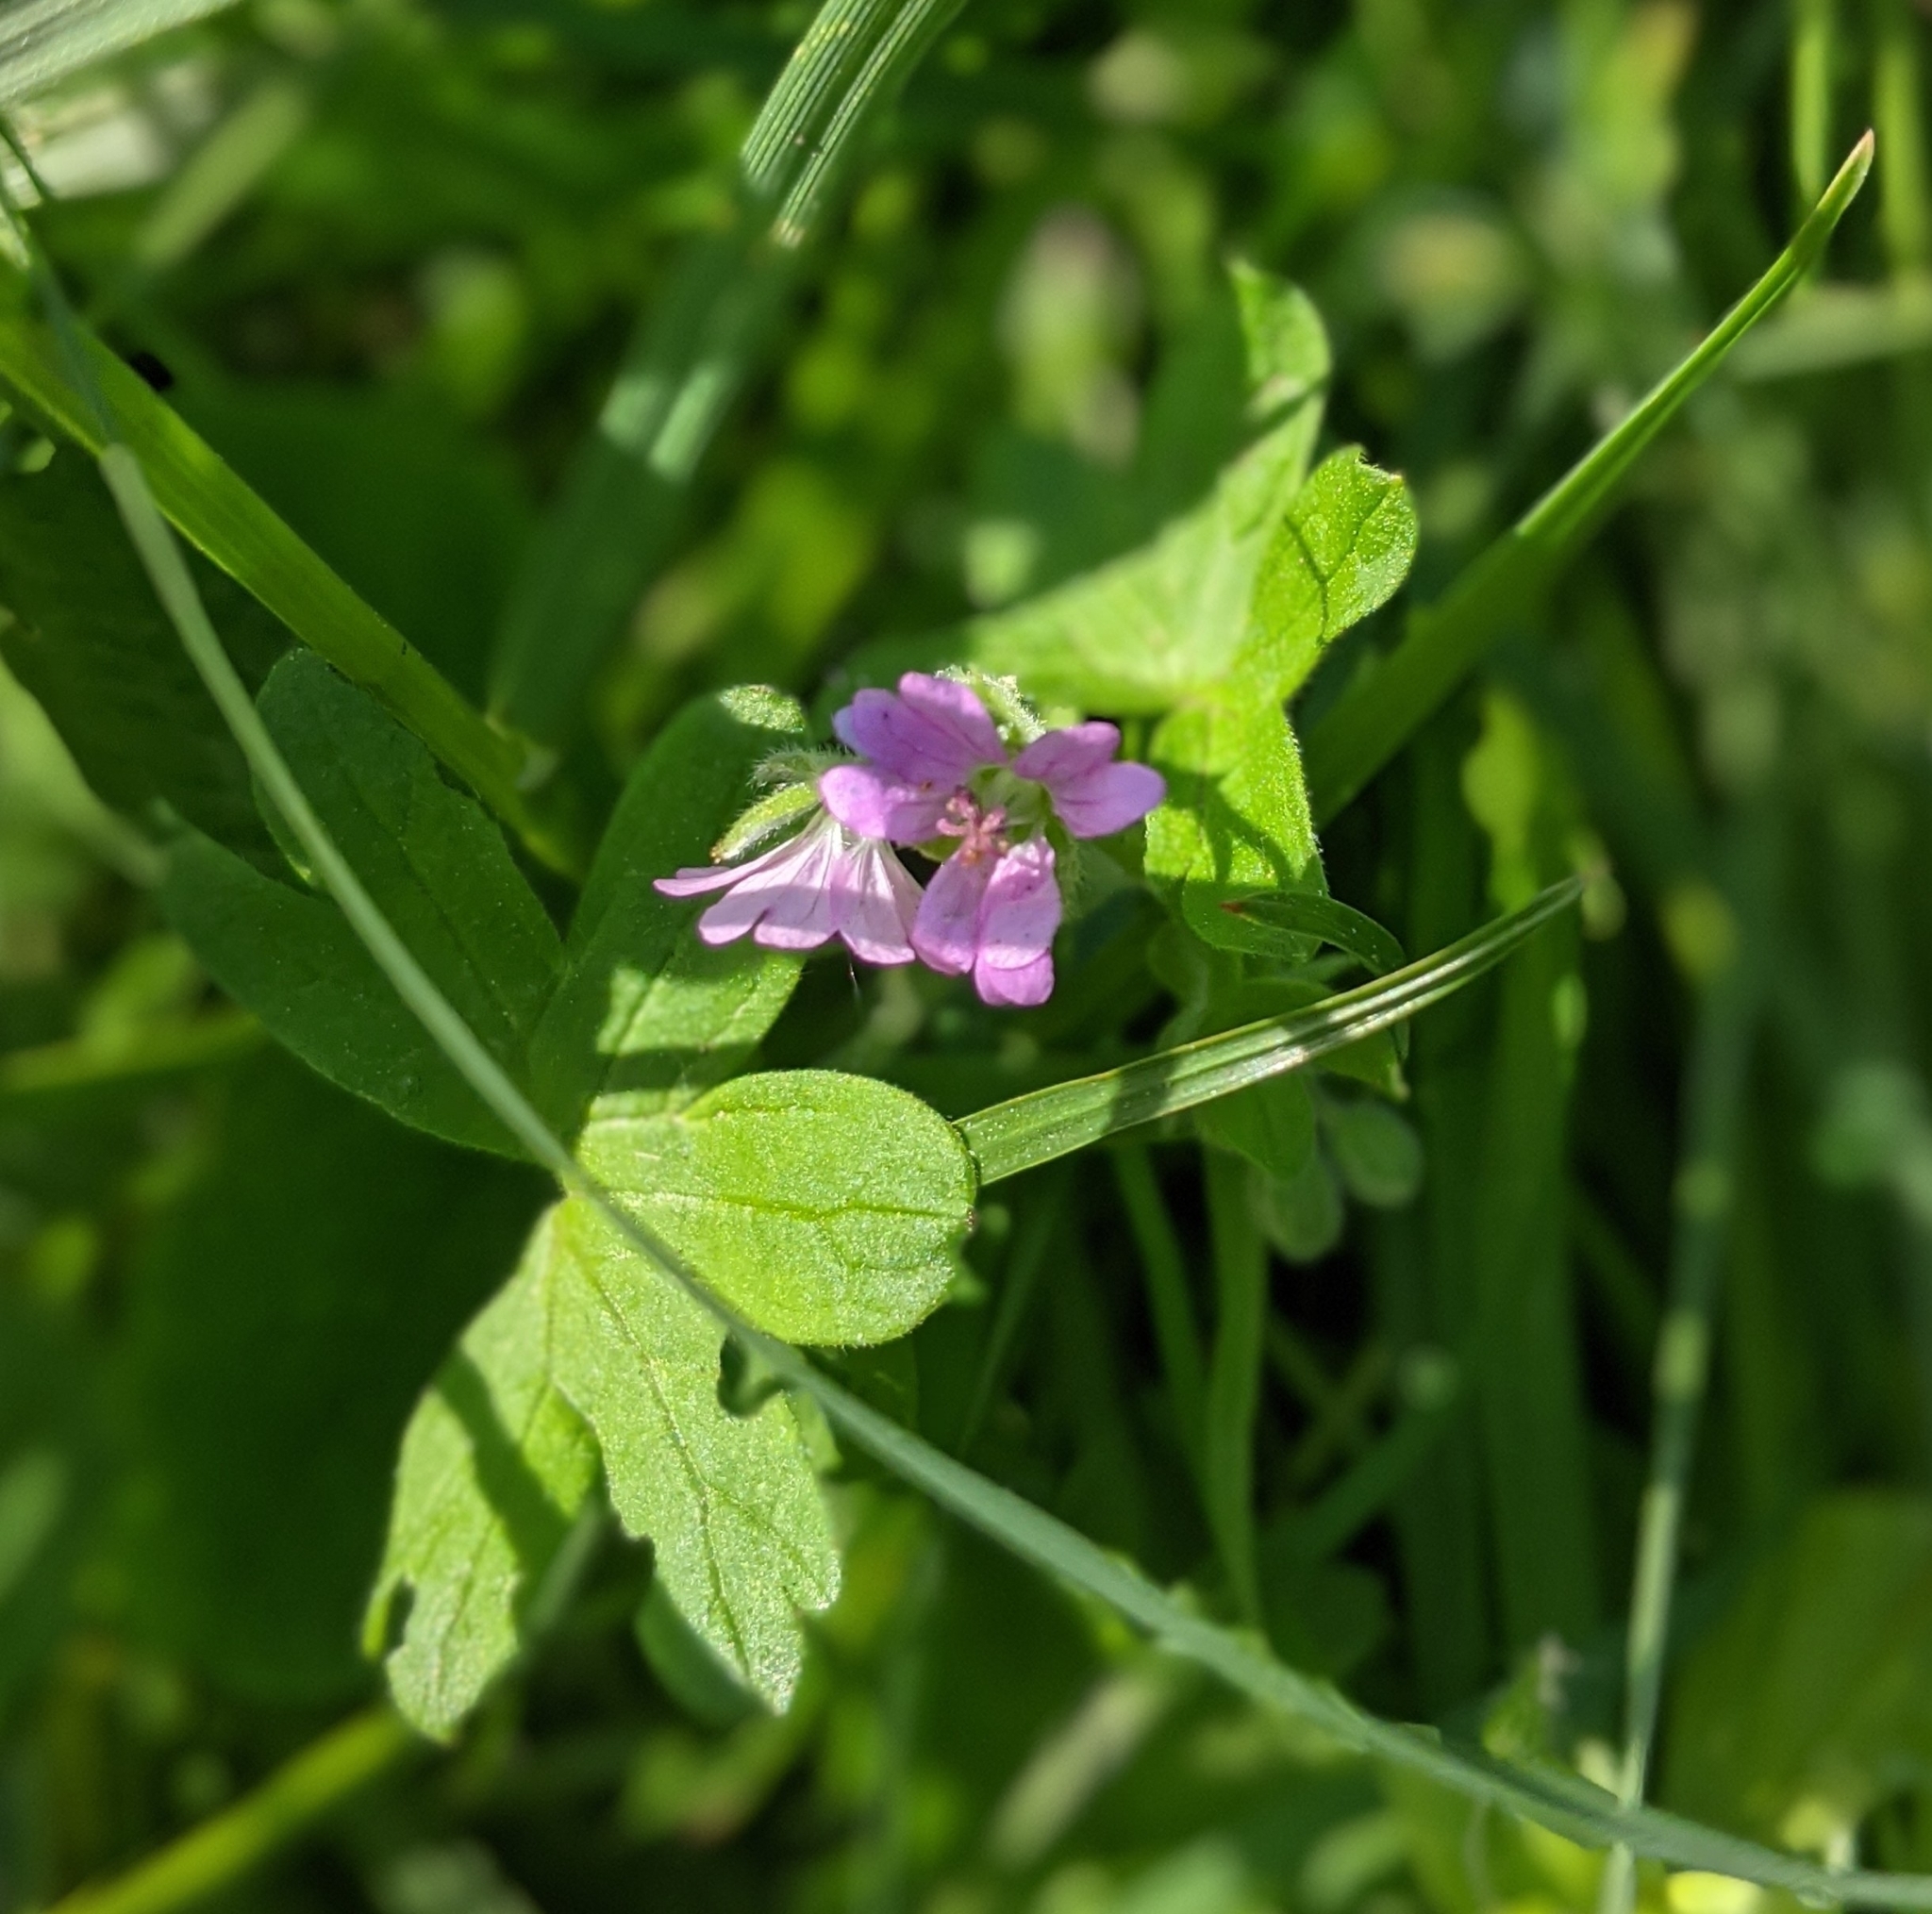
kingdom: Plantae
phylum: Tracheophyta
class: Magnoliopsida
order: Lamiales
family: Lamiaceae
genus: Glechoma
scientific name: Glechoma hederacea
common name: Ground ivy
